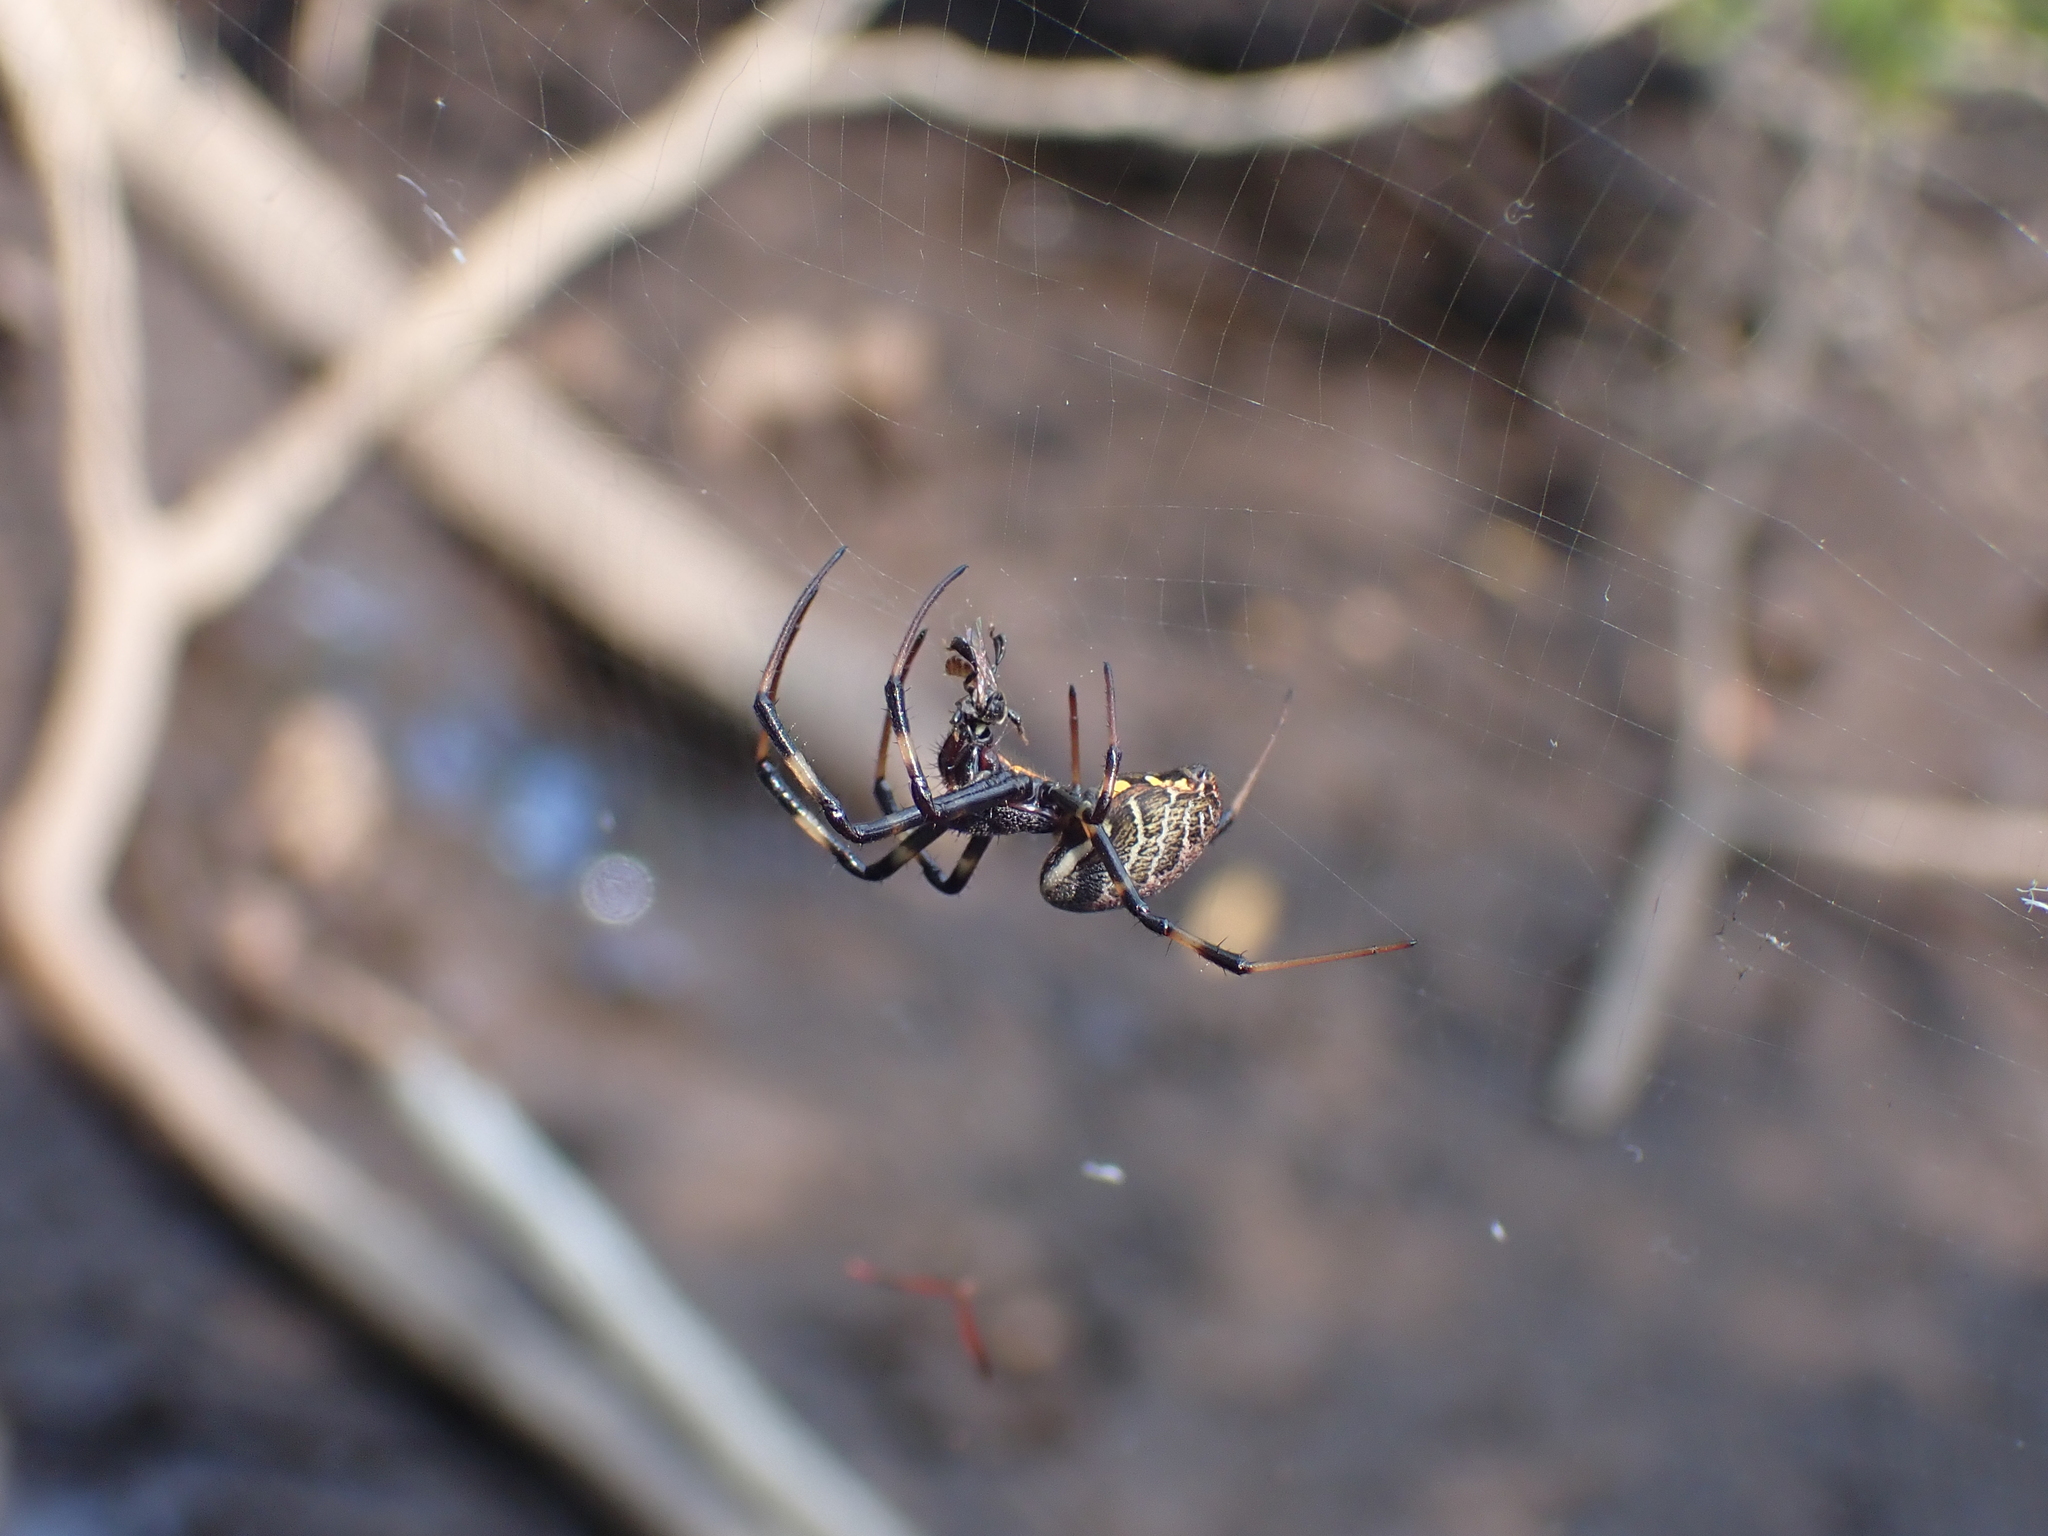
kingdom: Animalia
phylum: Arthropoda
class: Arachnida
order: Araneae
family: Araneidae
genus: Nephilengys
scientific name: Nephilengys malabarensis
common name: Asian hermit spider
